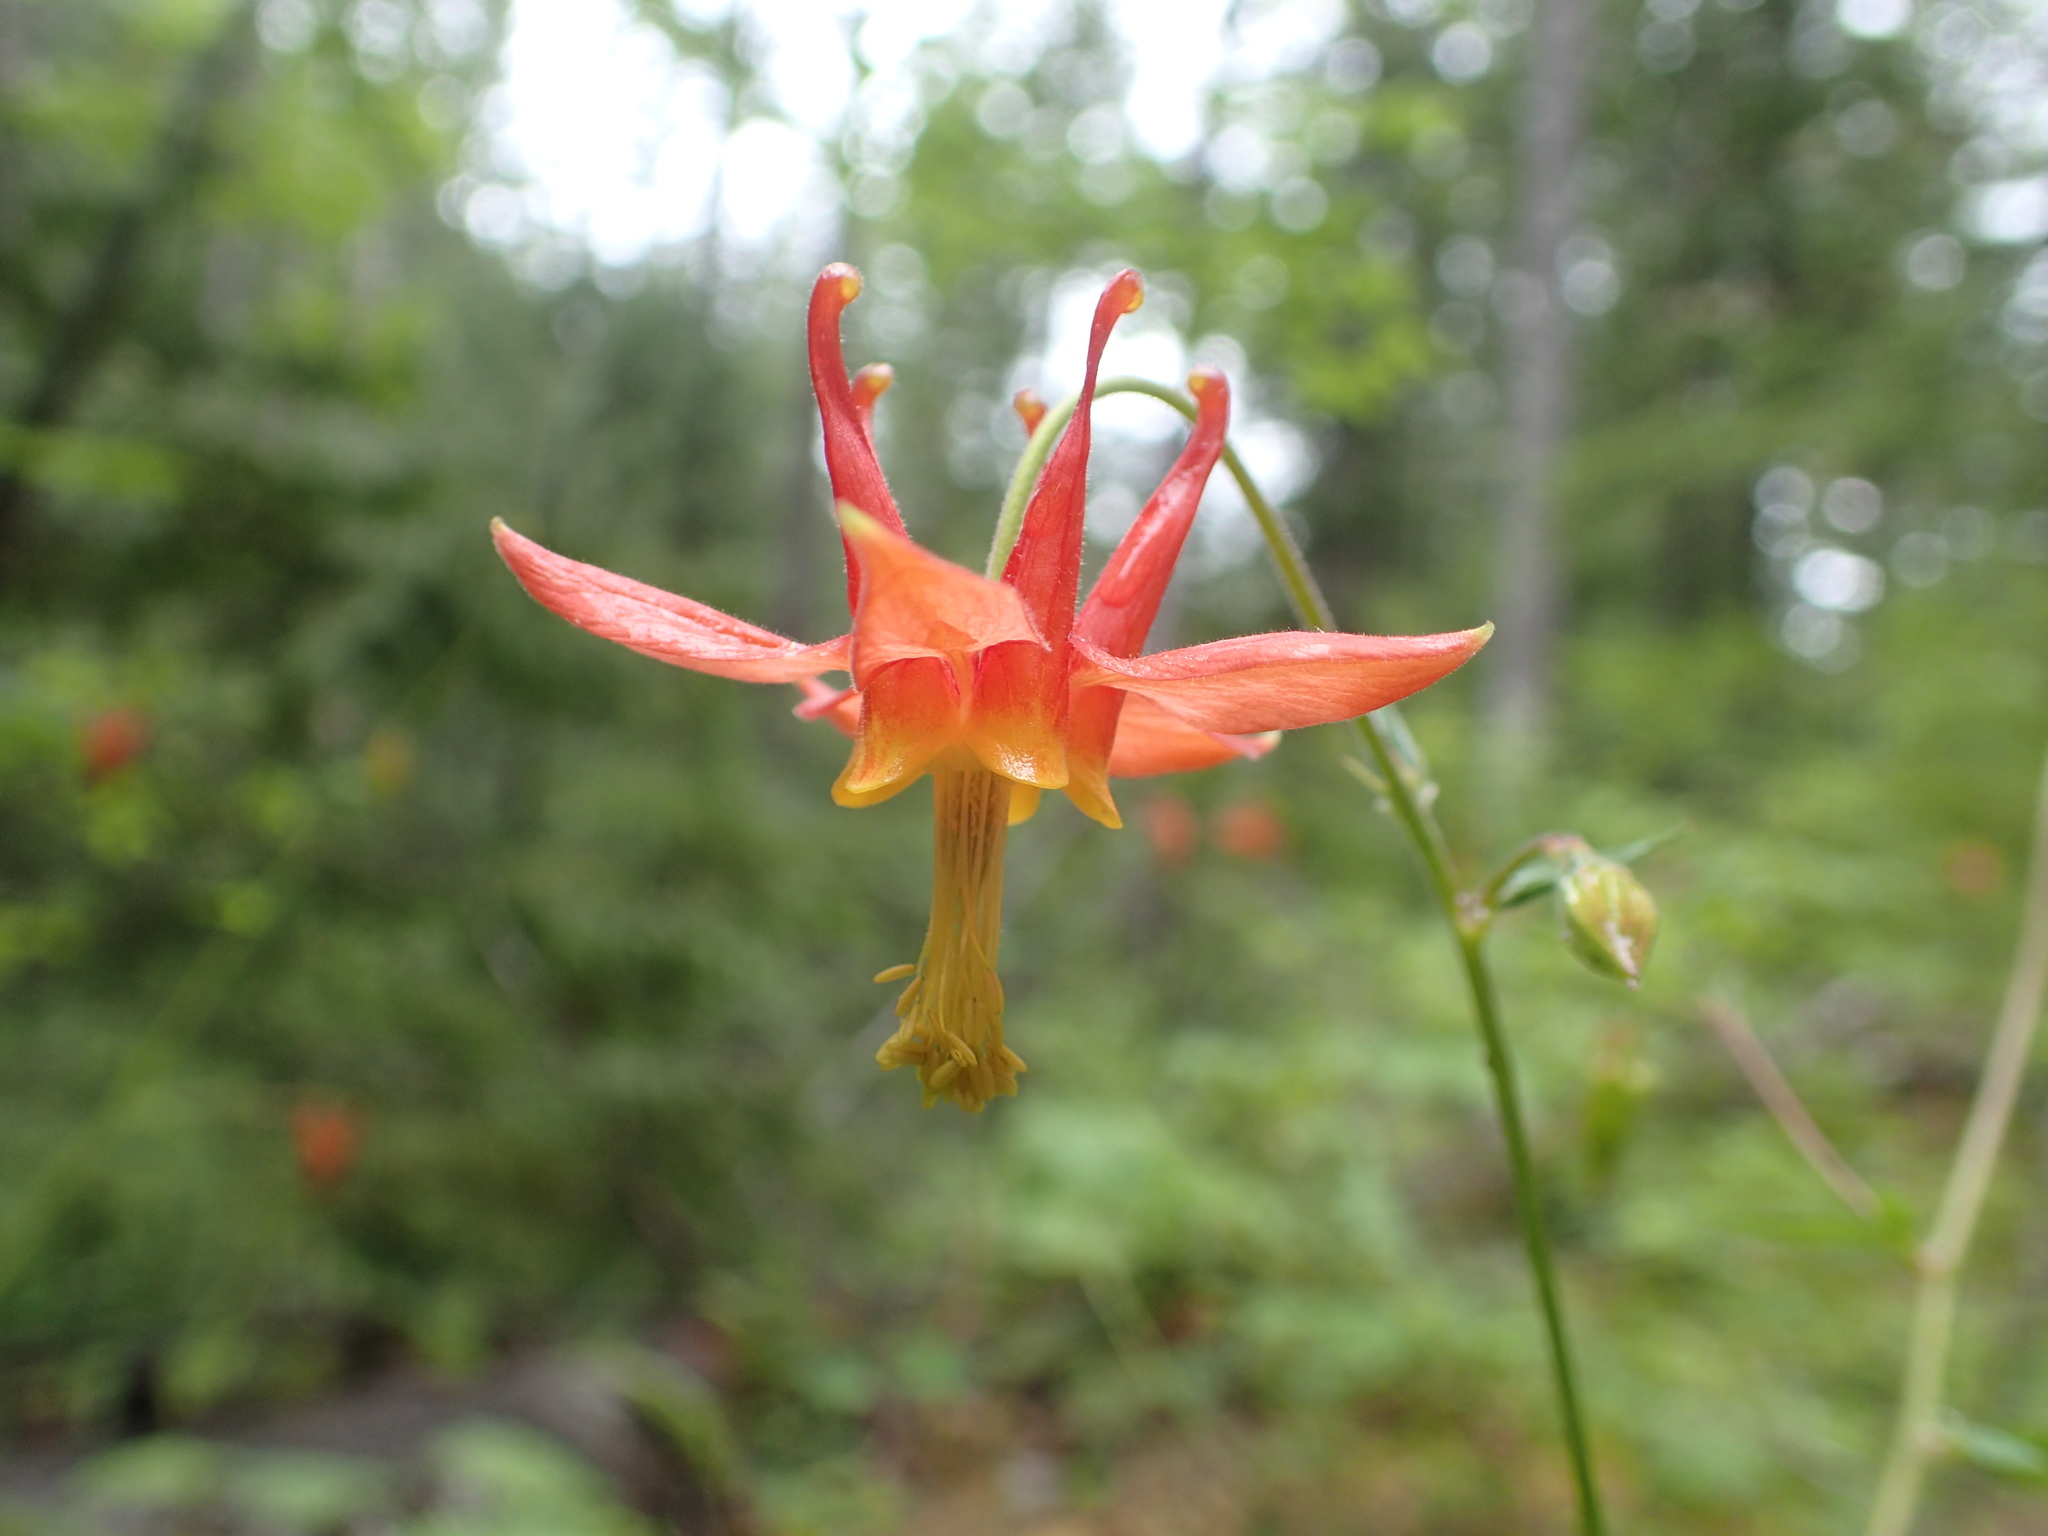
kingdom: Plantae
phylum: Tracheophyta
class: Magnoliopsida
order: Ranunculales
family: Ranunculaceae
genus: Aquilegia
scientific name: Aquilegia formosa
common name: Sitka columbine
